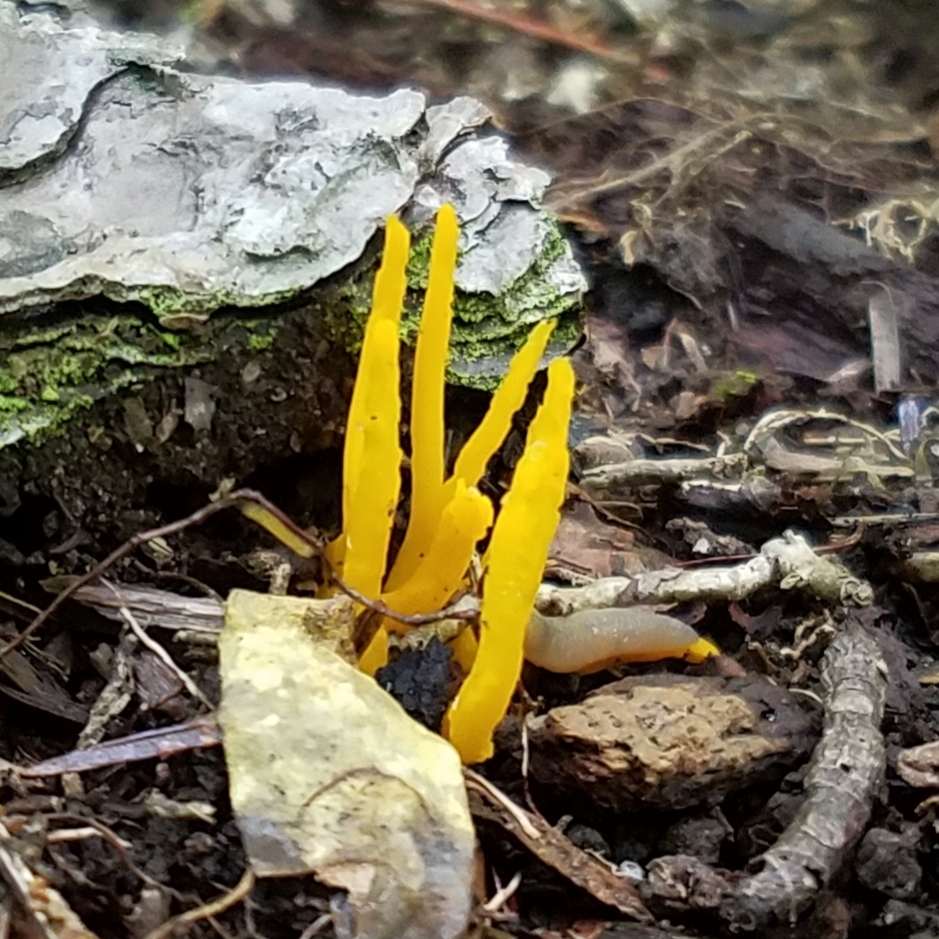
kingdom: Fungi
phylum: Basidiomycota
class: Agaricomycetes
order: Agaricales
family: Clavariaceae
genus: Clavulinopsis
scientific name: Clavulinopsis fusiformis
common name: Golden spindles
